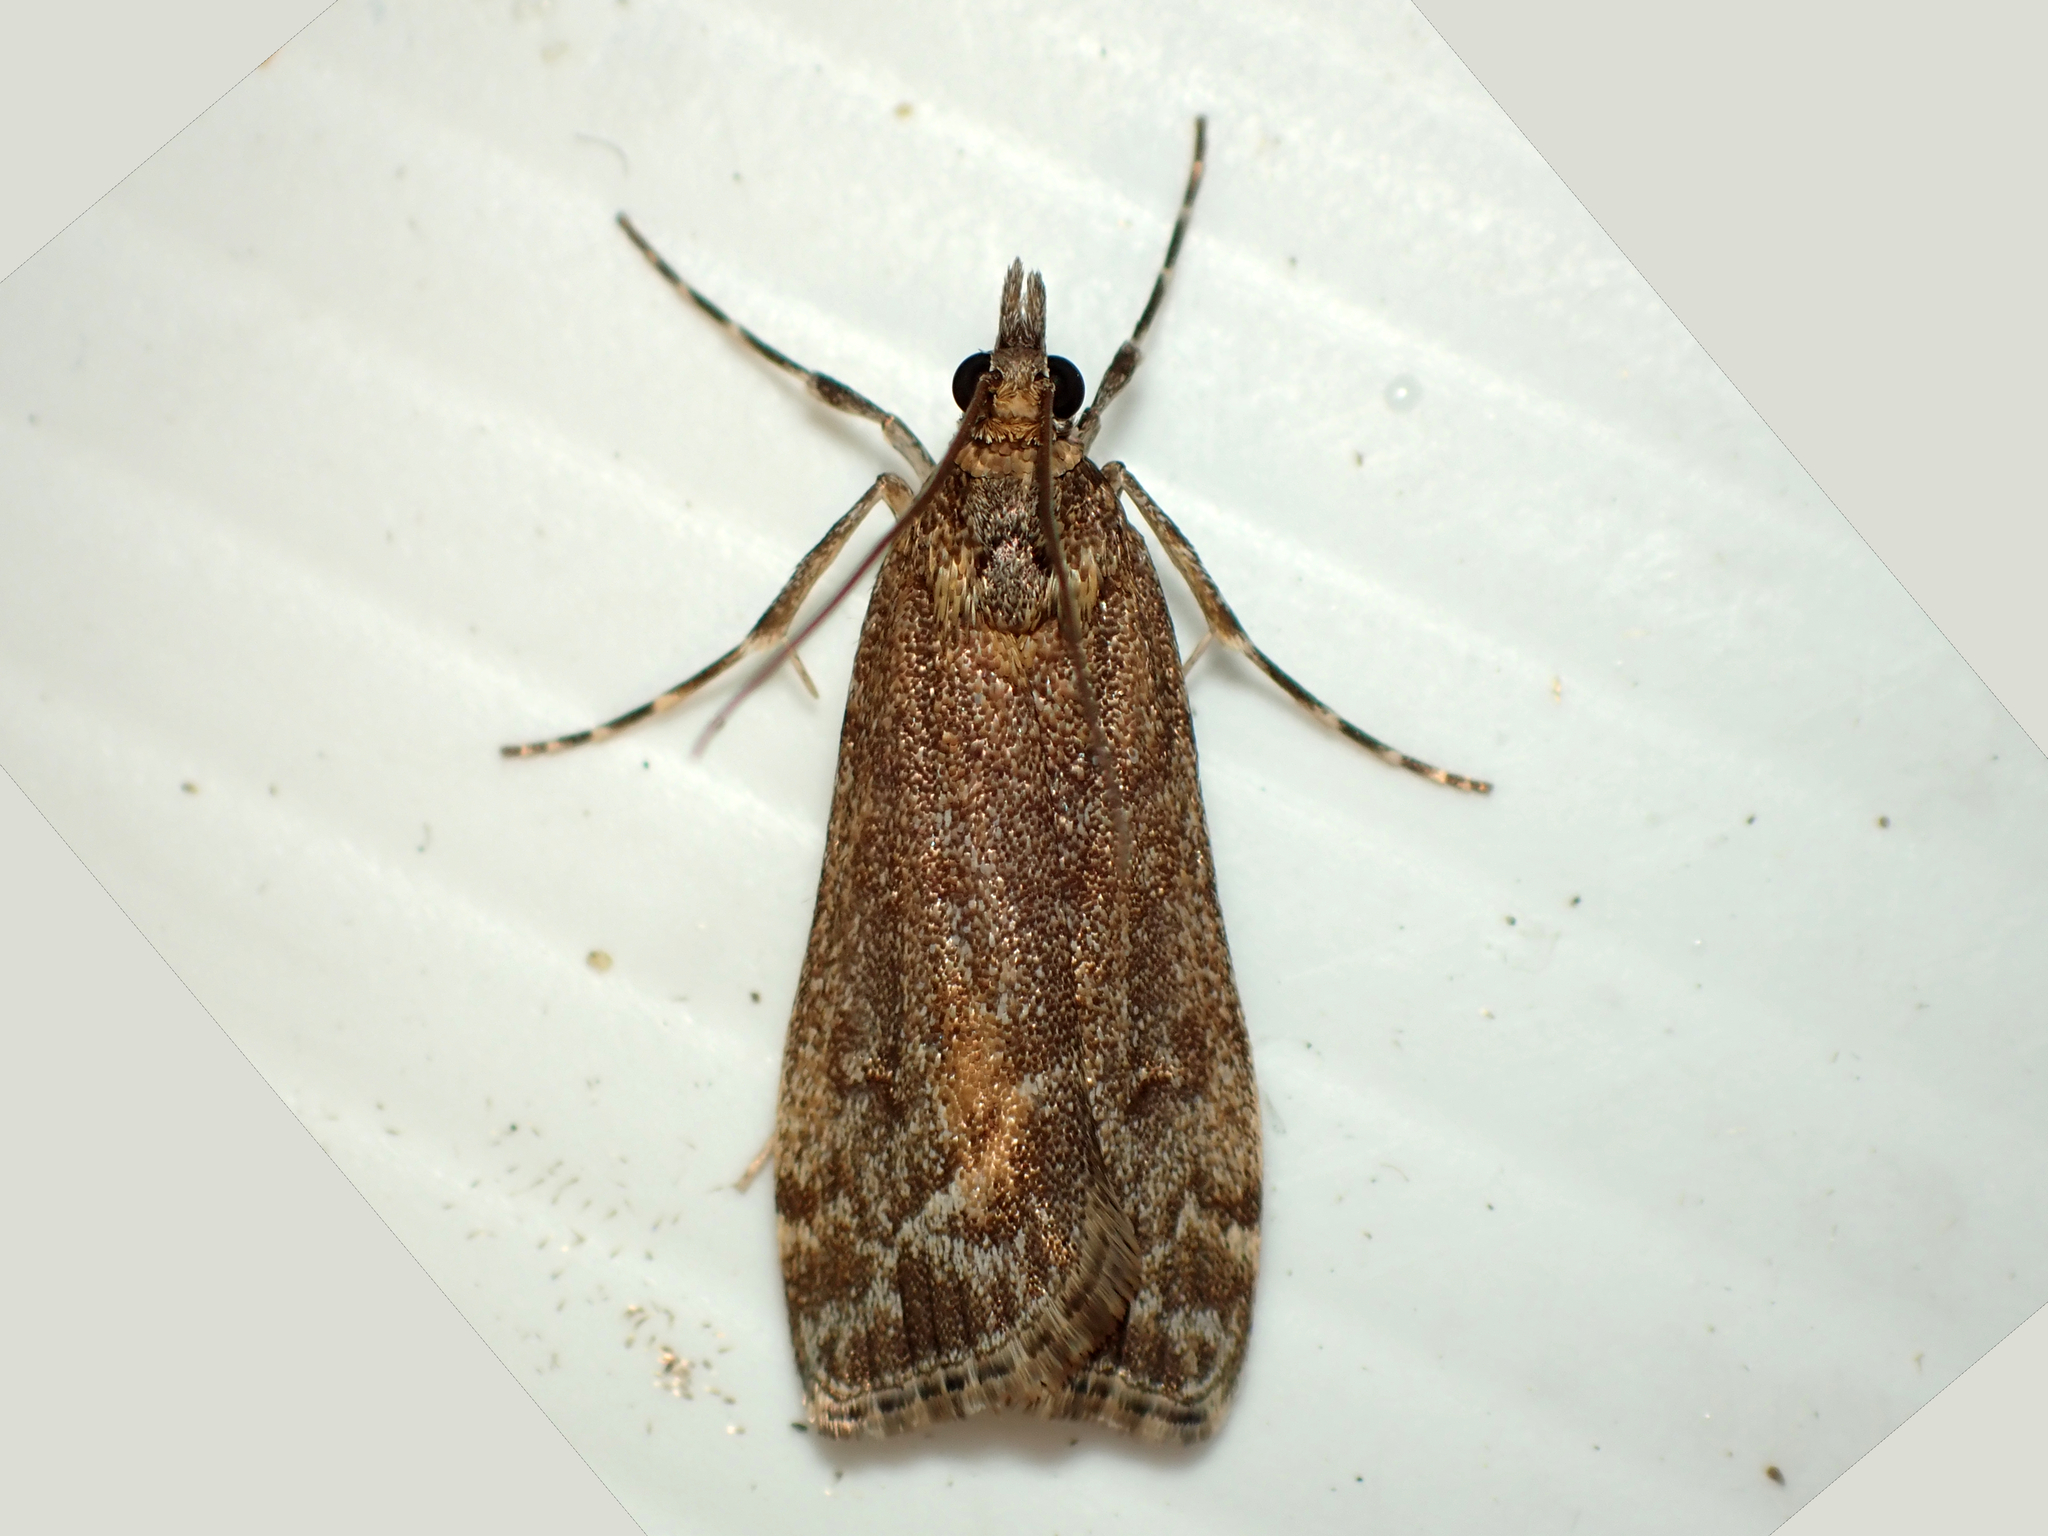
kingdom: Animalia
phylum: Arthropoda
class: Insecta
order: Lepidoptera
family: Crambidae
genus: Eudonia
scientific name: Eudonia submarginalis
